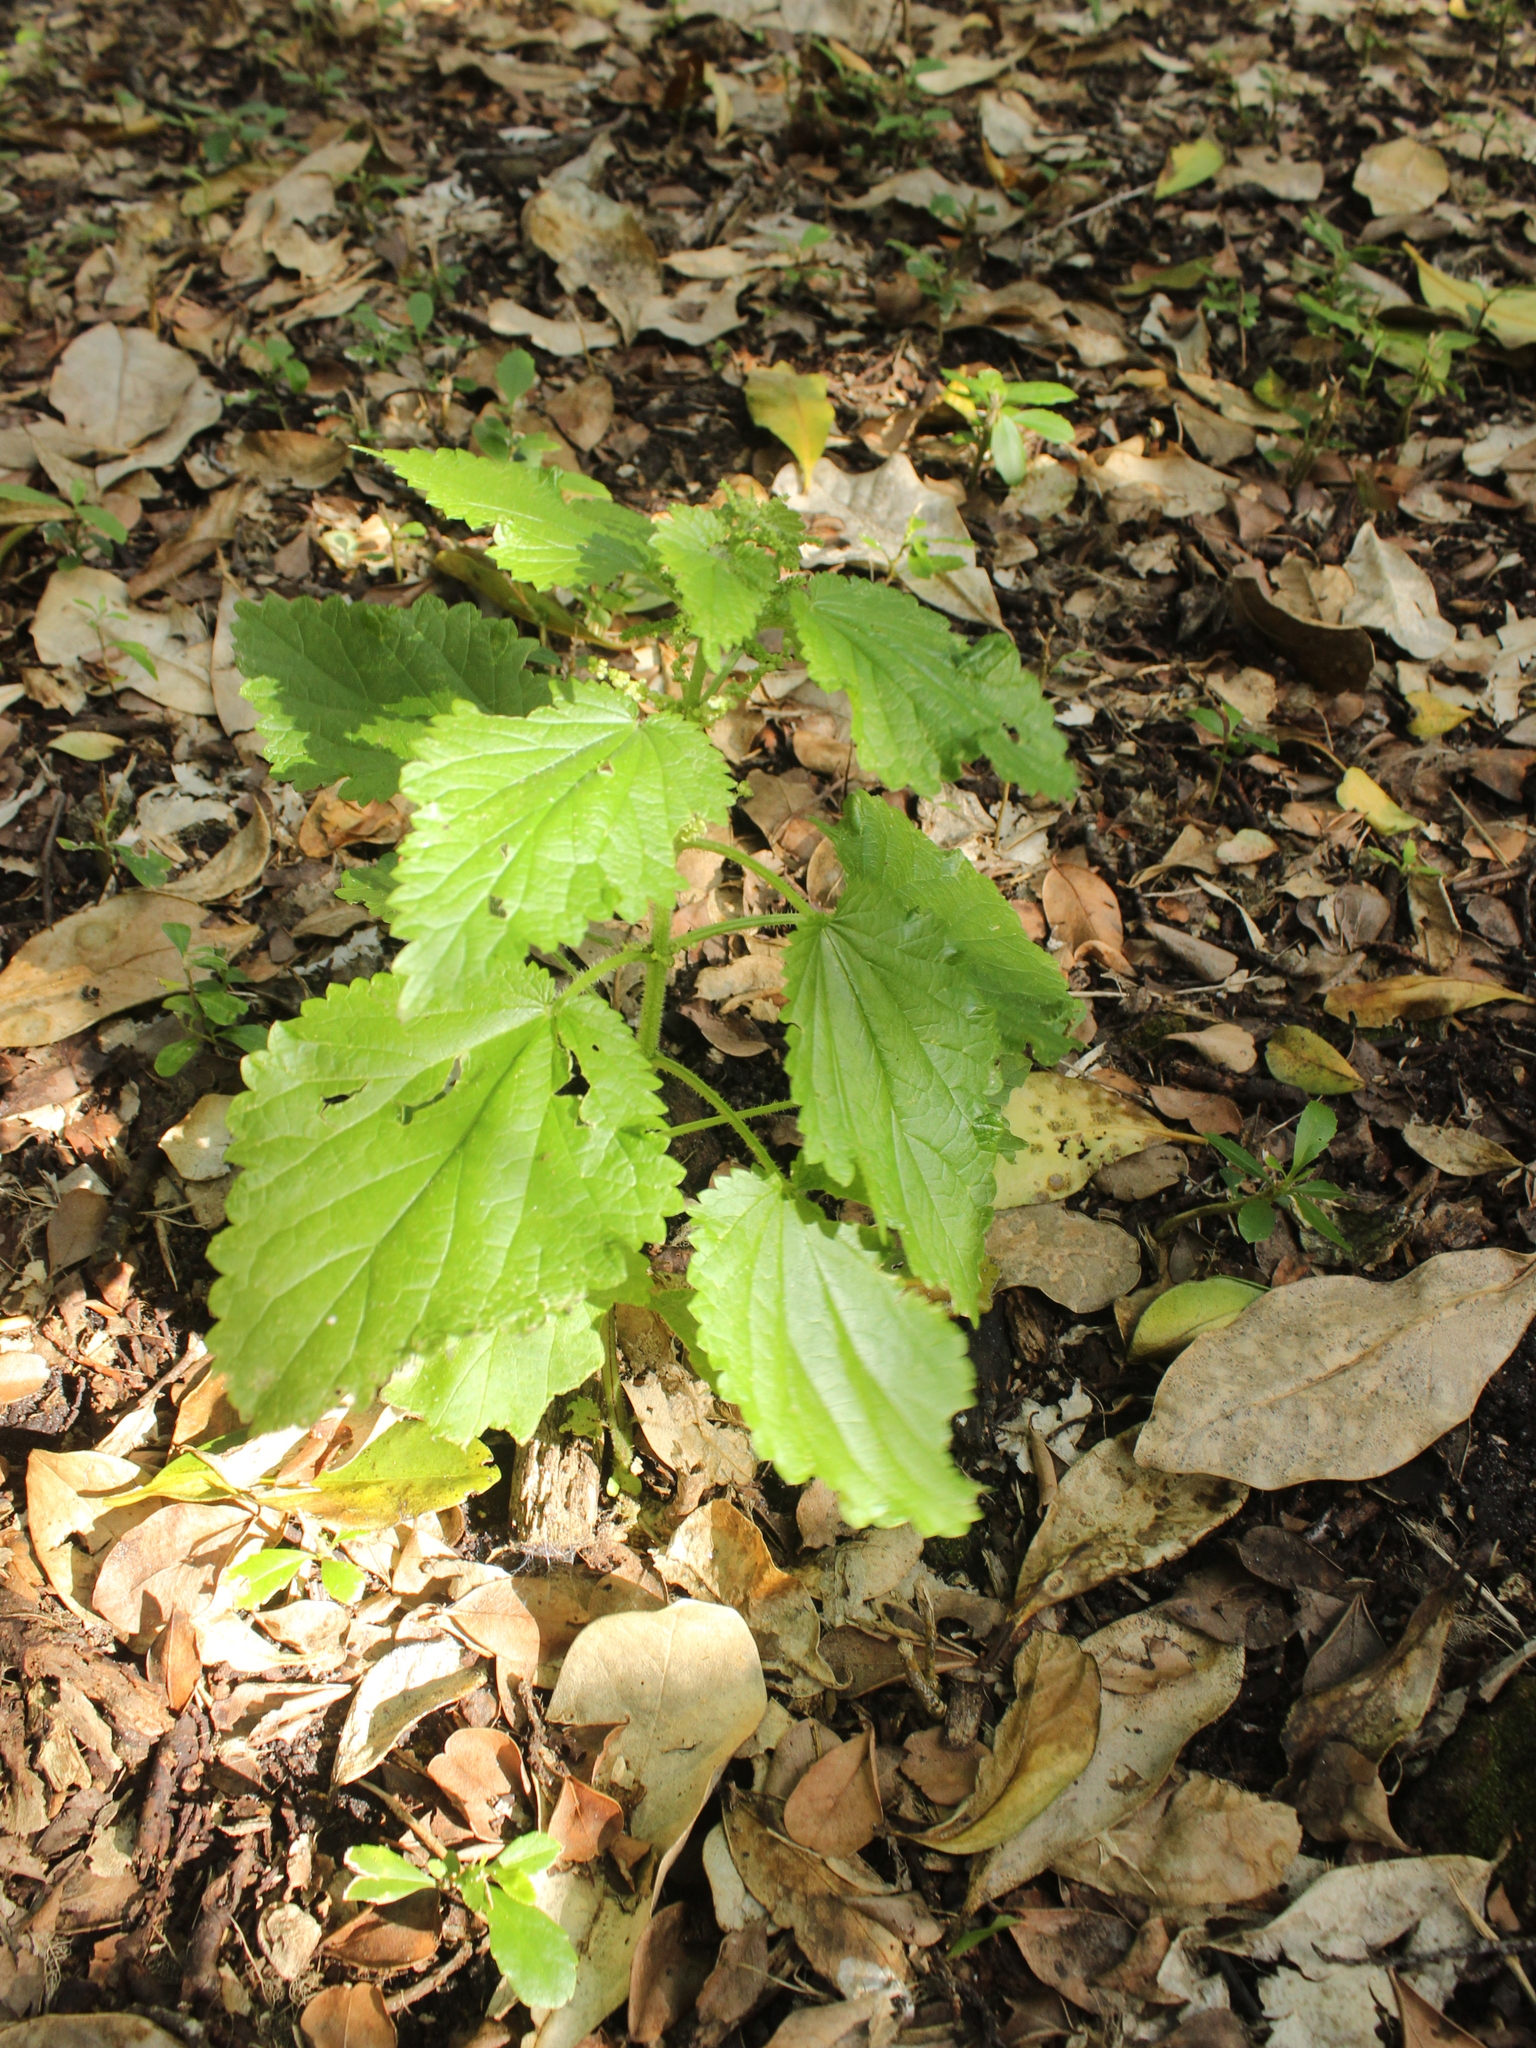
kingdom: Plantae
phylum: Tracheophyta
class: Magnoliopsida
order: Rosales
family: Urticaceae
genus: Urtica
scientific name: Urtica australis
